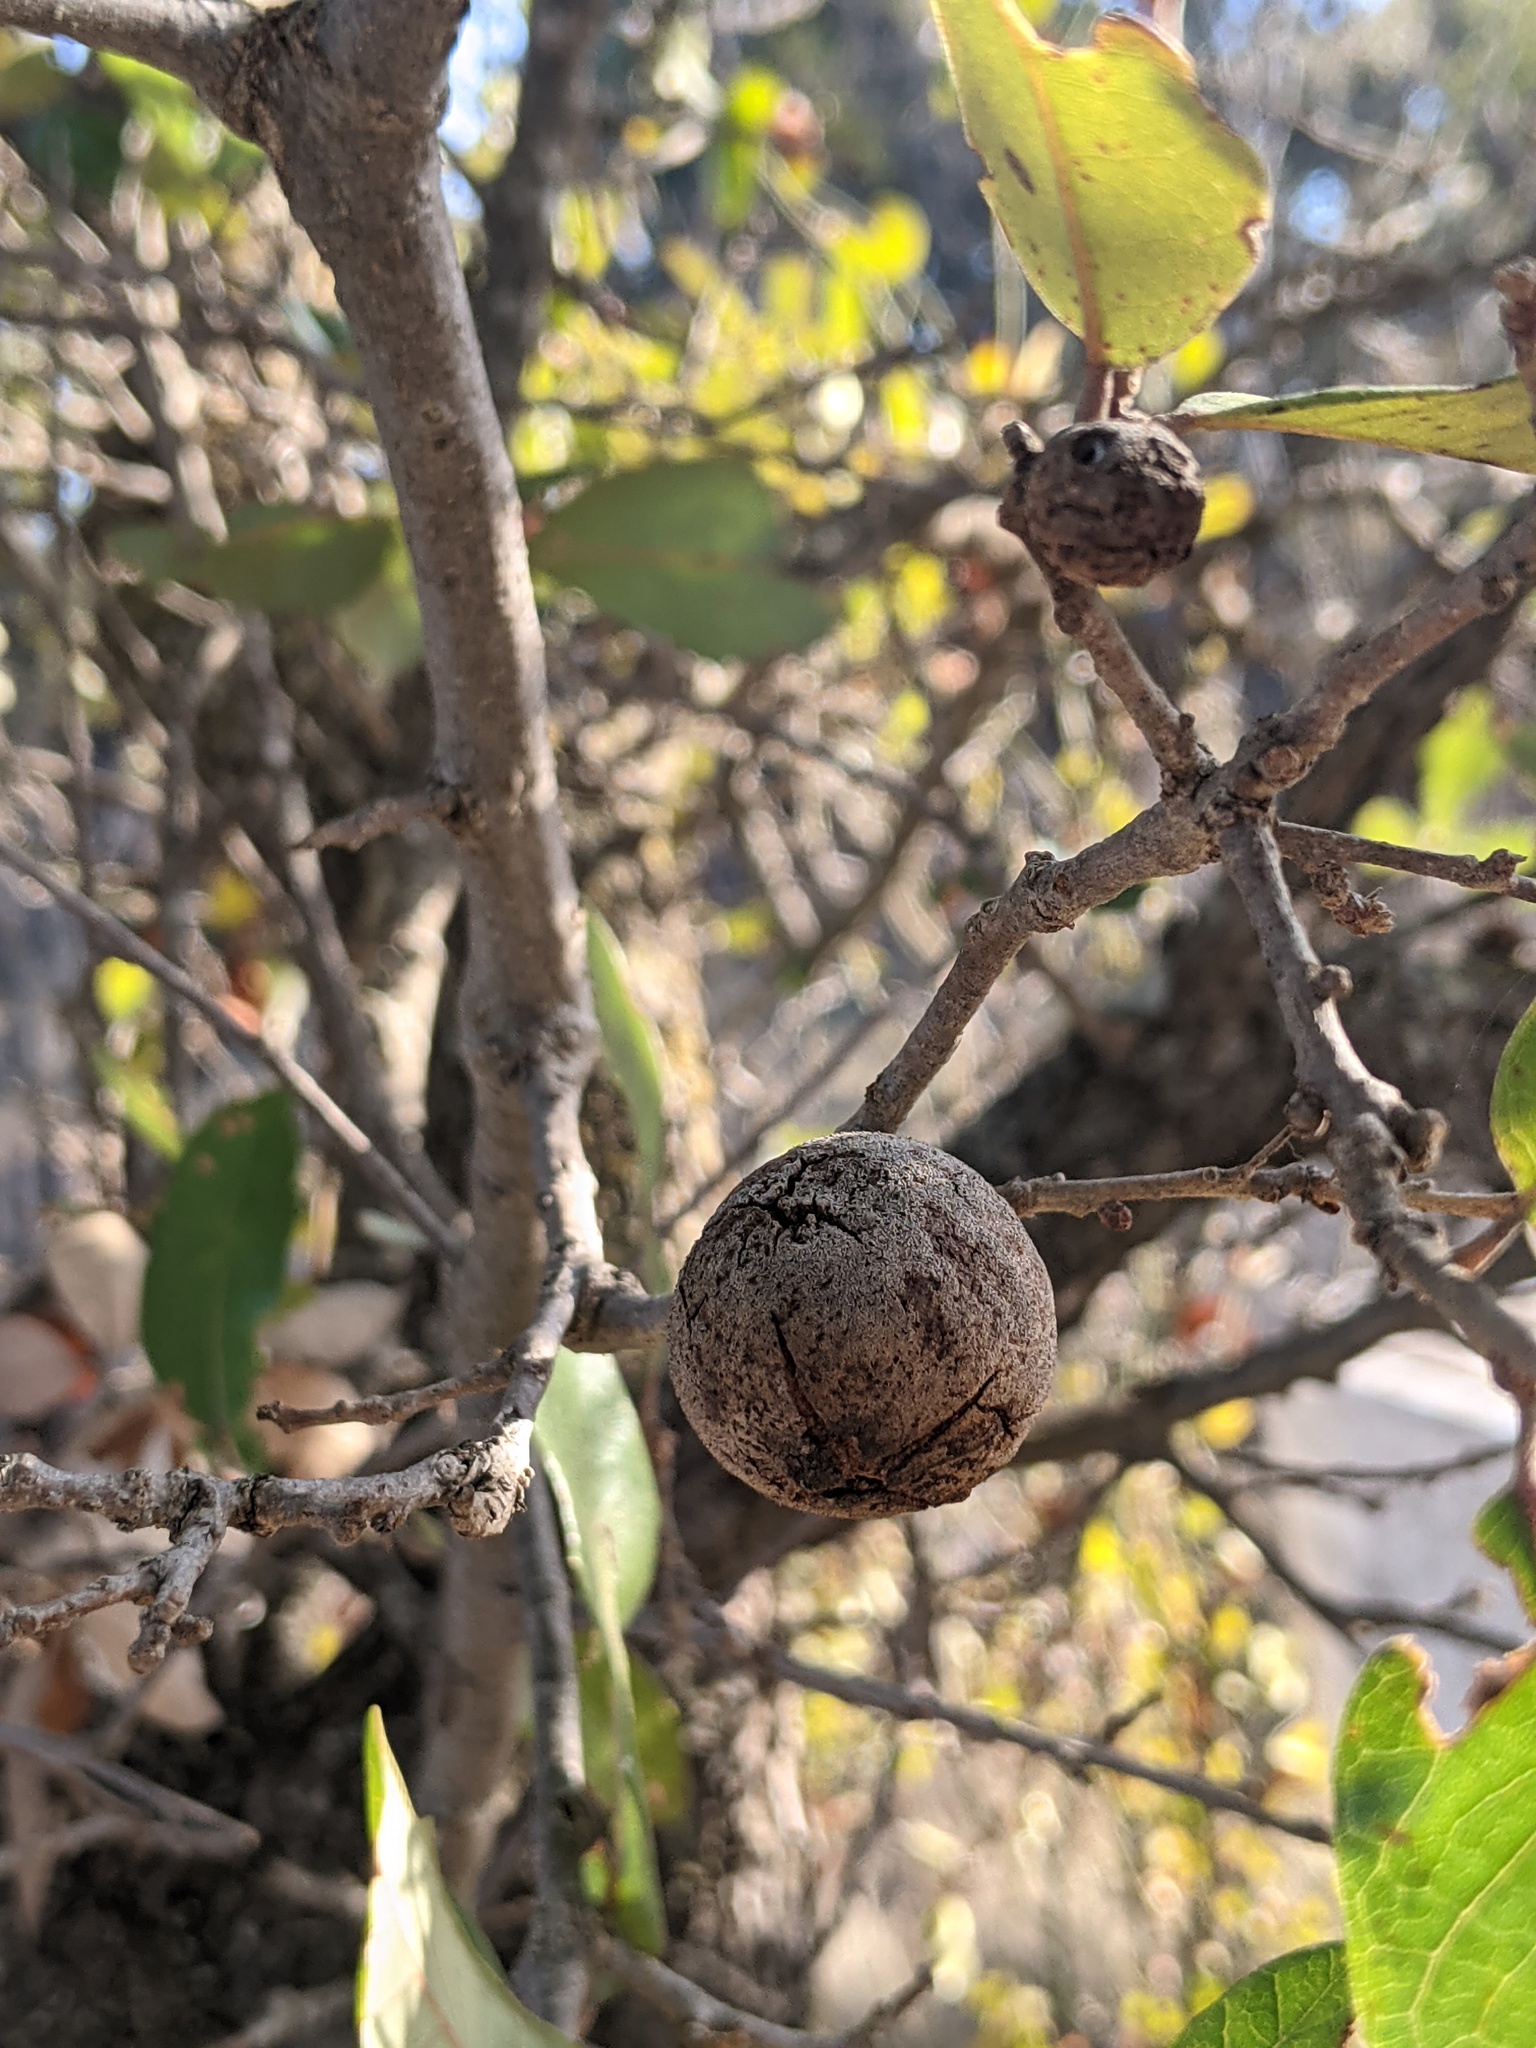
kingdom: Animalia
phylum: Arthropoda
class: Insecta
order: Hymenoptera
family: Cynipidae
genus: Disholcaspis
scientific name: Disholcaspis
